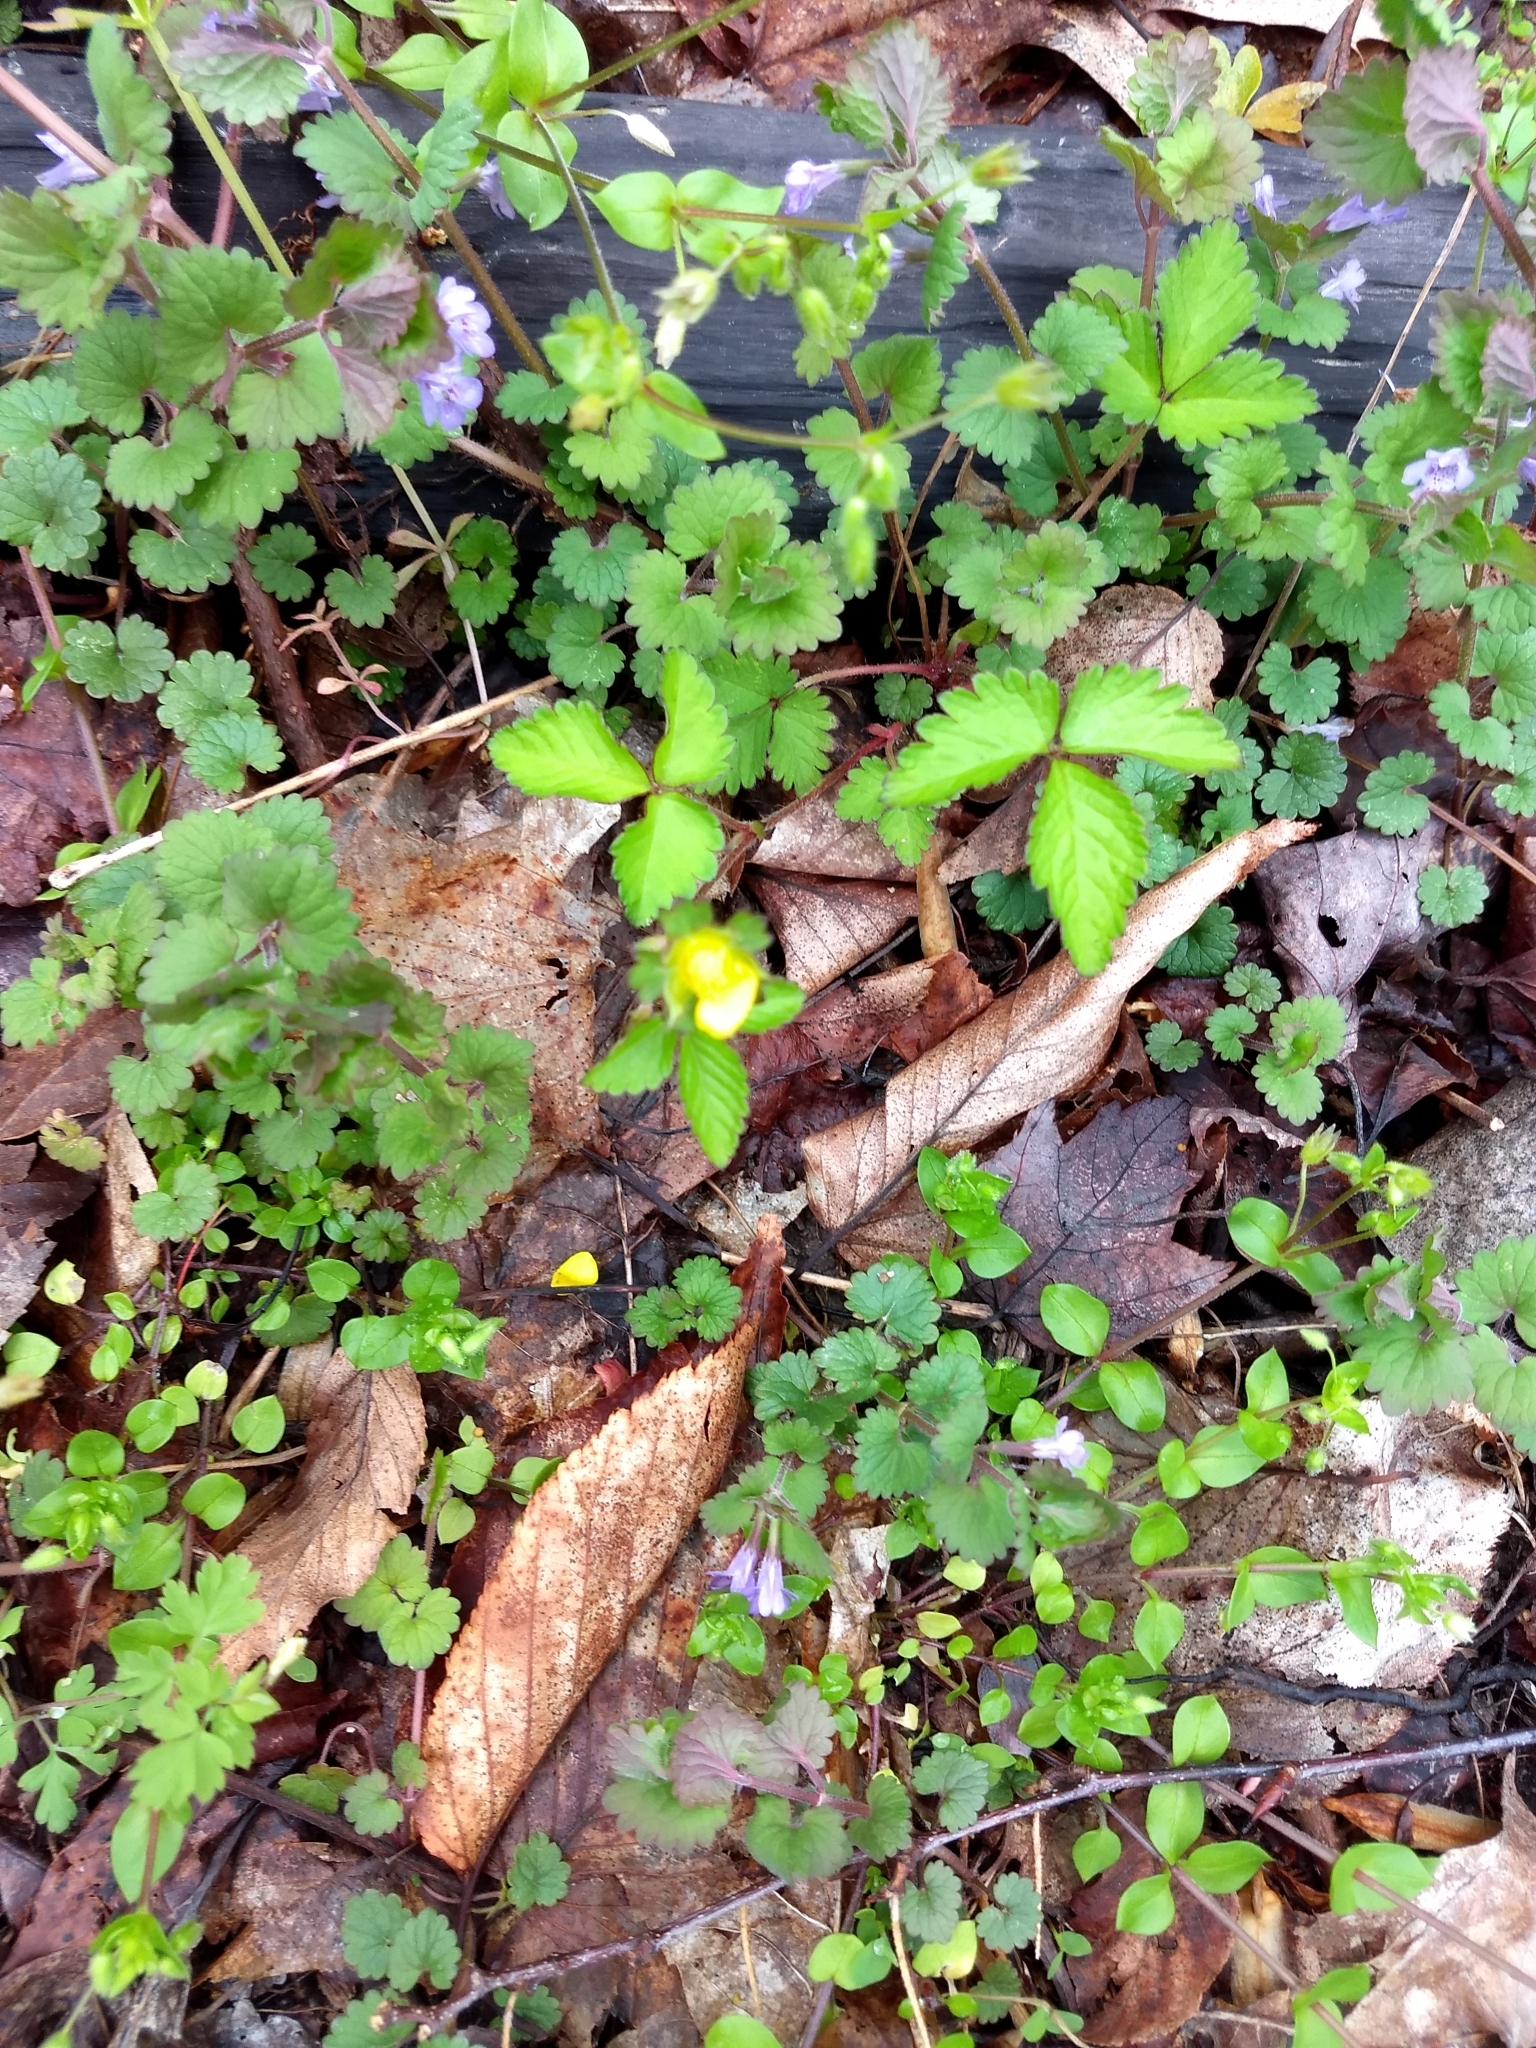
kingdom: Plantae
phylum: Tracheophyta
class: Magnoliopsida
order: Rosales
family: Rosaceae
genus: Potentilla
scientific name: Potentilla indica
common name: Yellow-flowered strawberry
